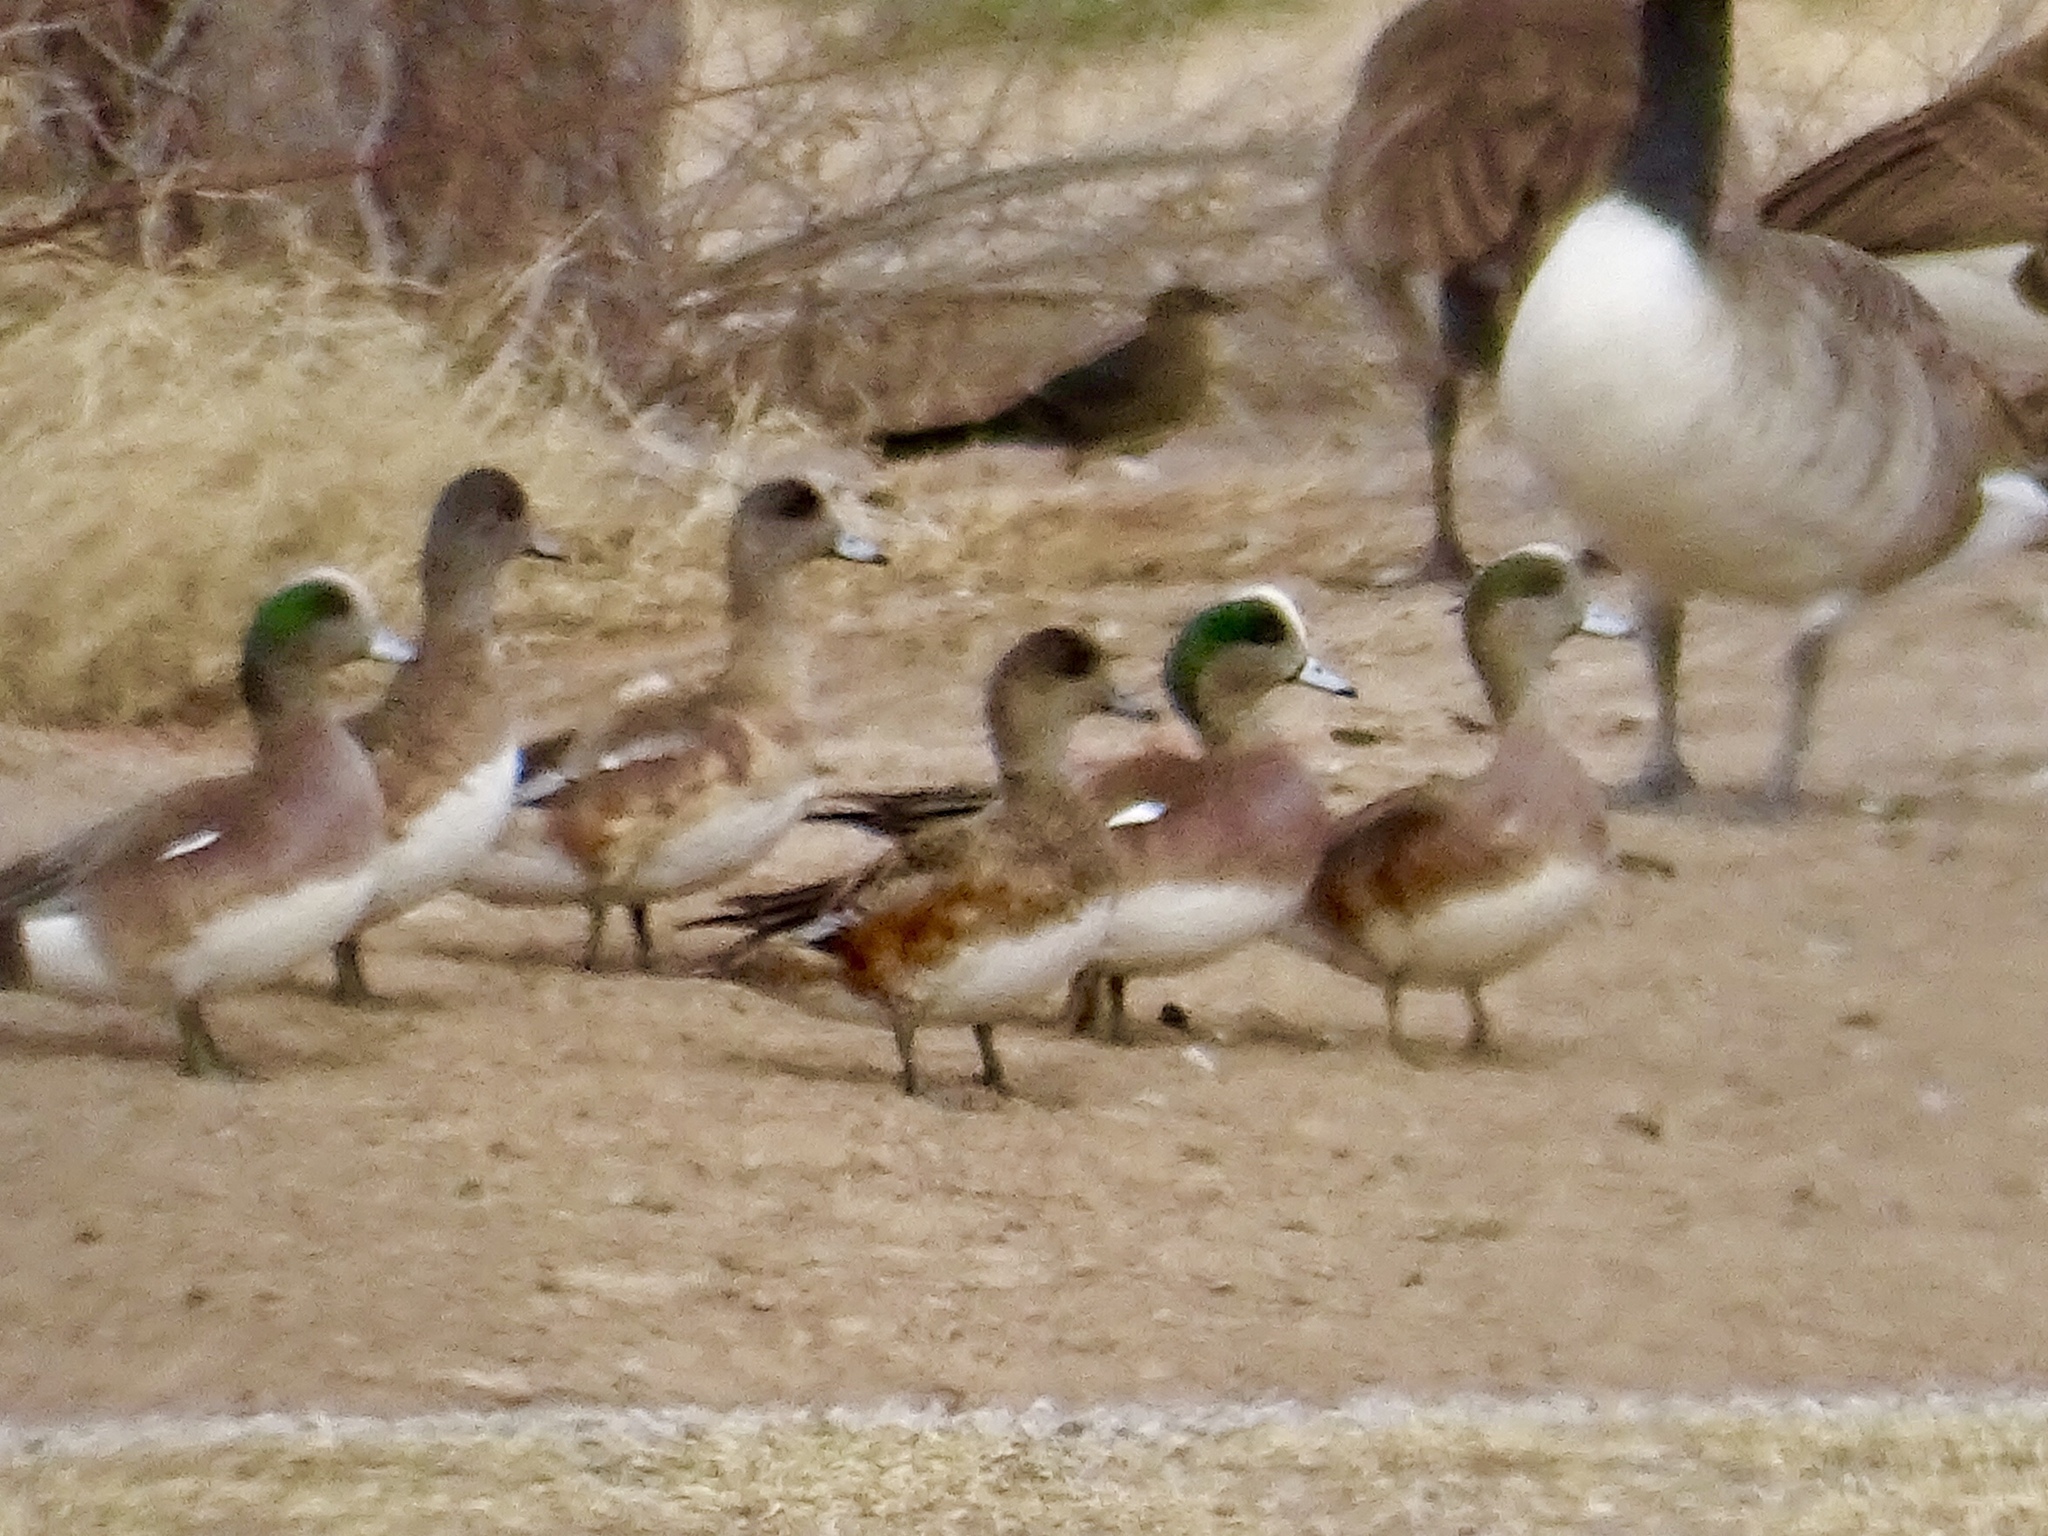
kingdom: Animalia
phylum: Chordata
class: Aves
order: Anseriformes
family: Anatidae
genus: Mareca
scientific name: Mareca americana
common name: American wigeon
